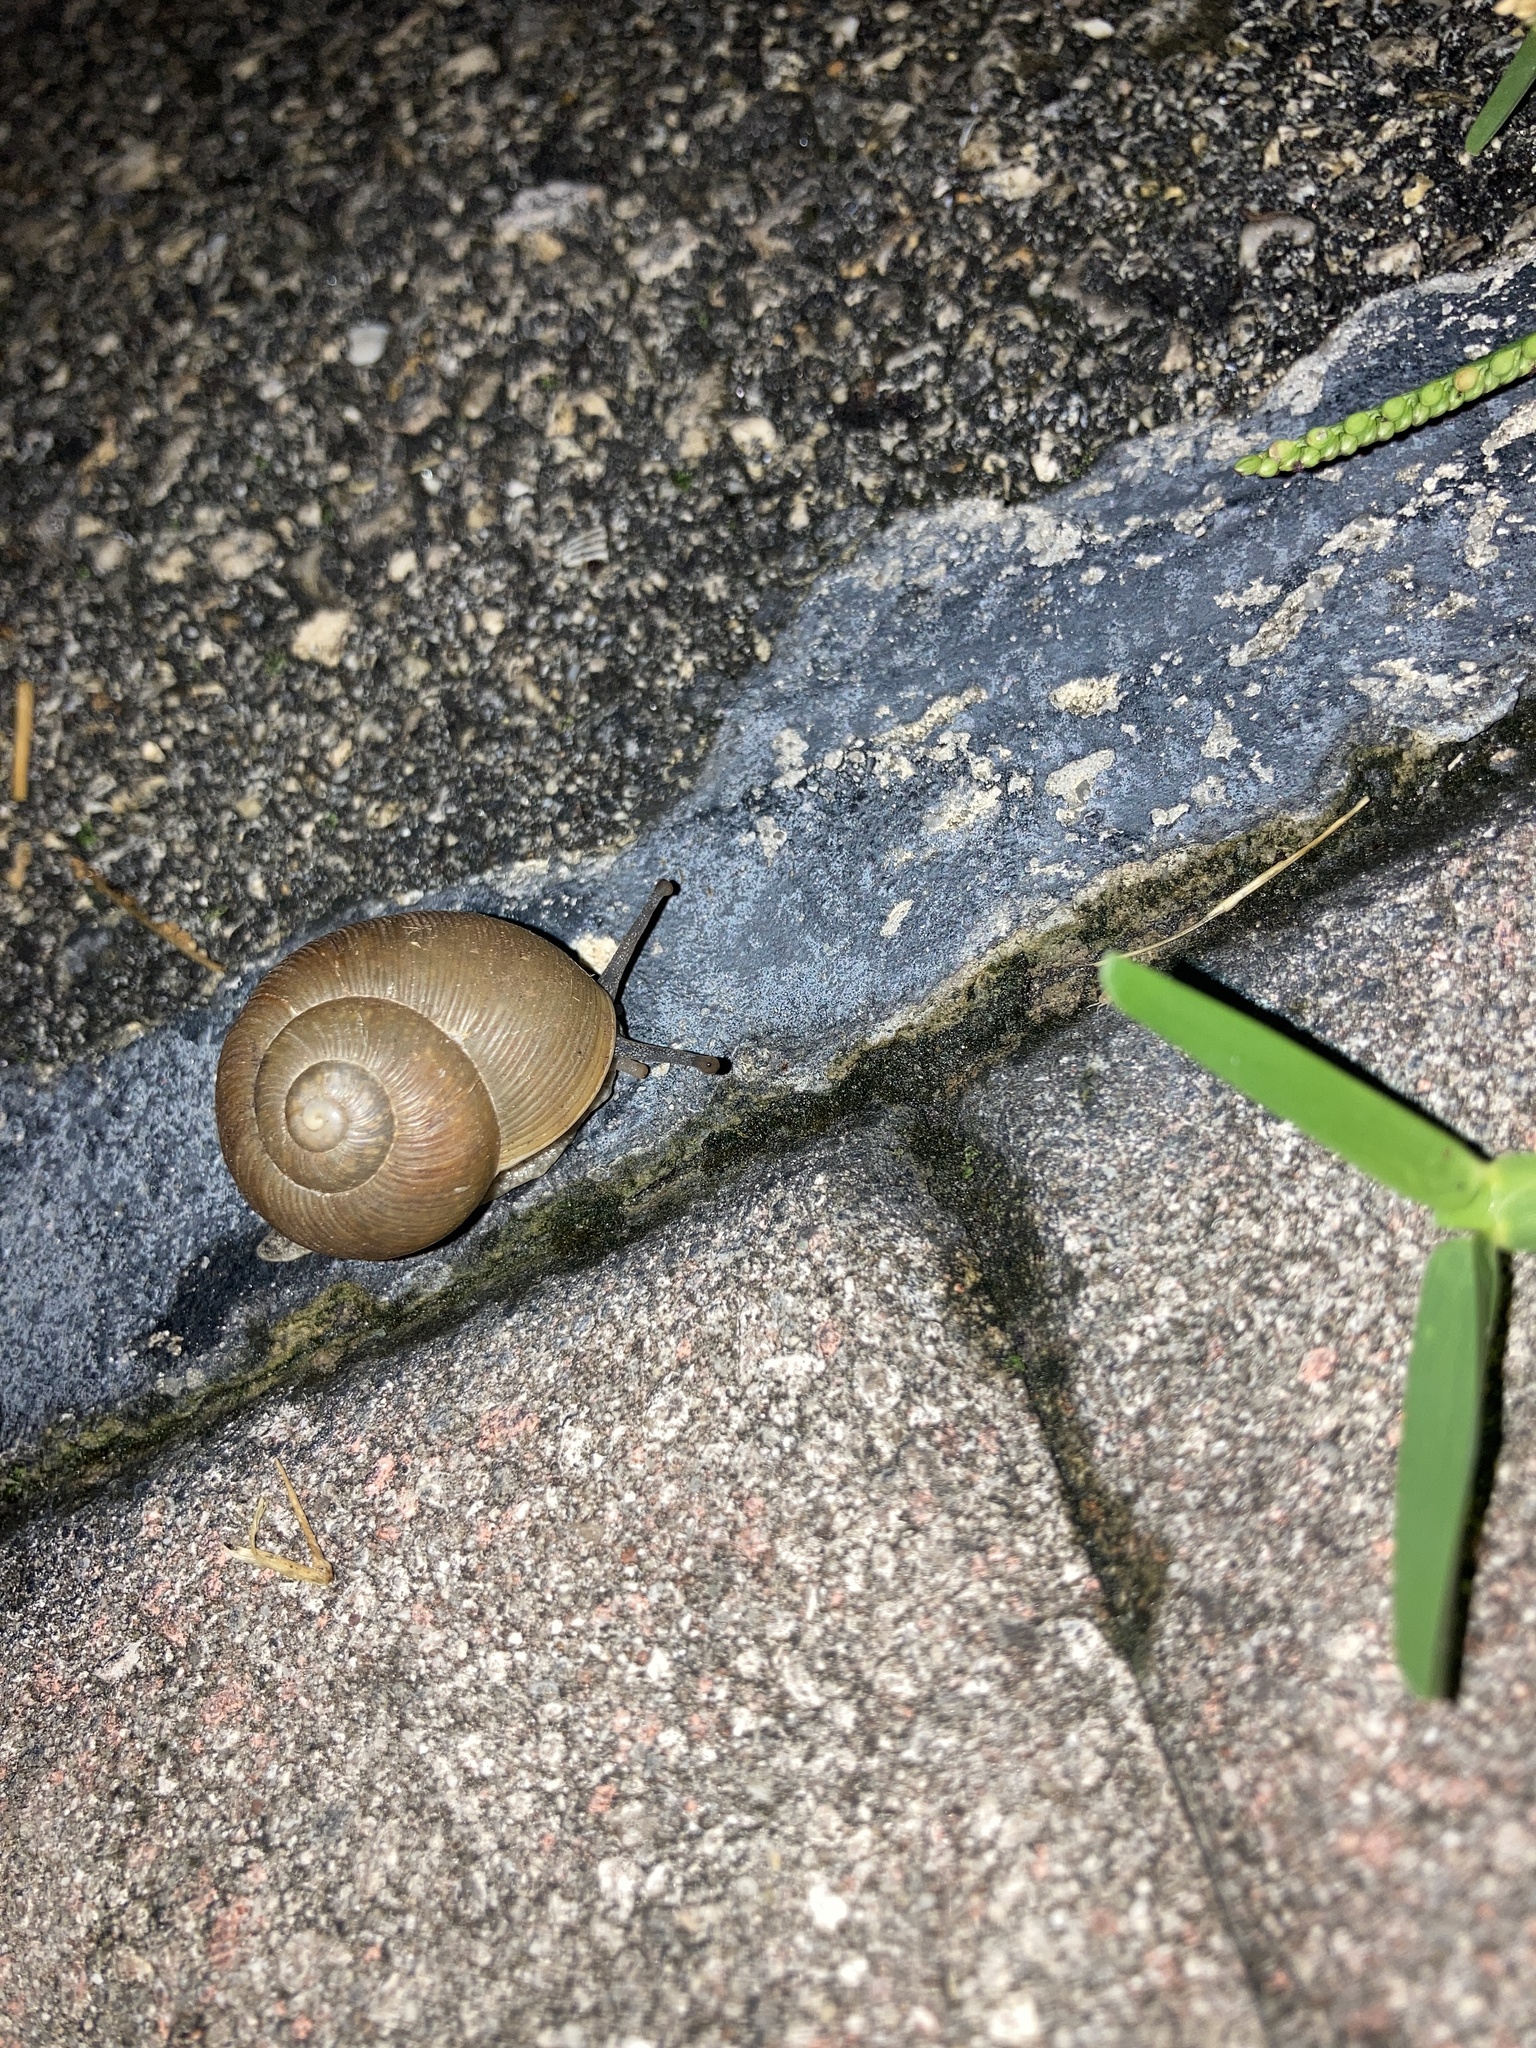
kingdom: Animalia
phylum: Mollusca
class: Gastropoda
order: Stylommatophora
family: Zachrysiidae
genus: Zachrysia
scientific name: Zachrysia provisoria
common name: Garden zachrysia
